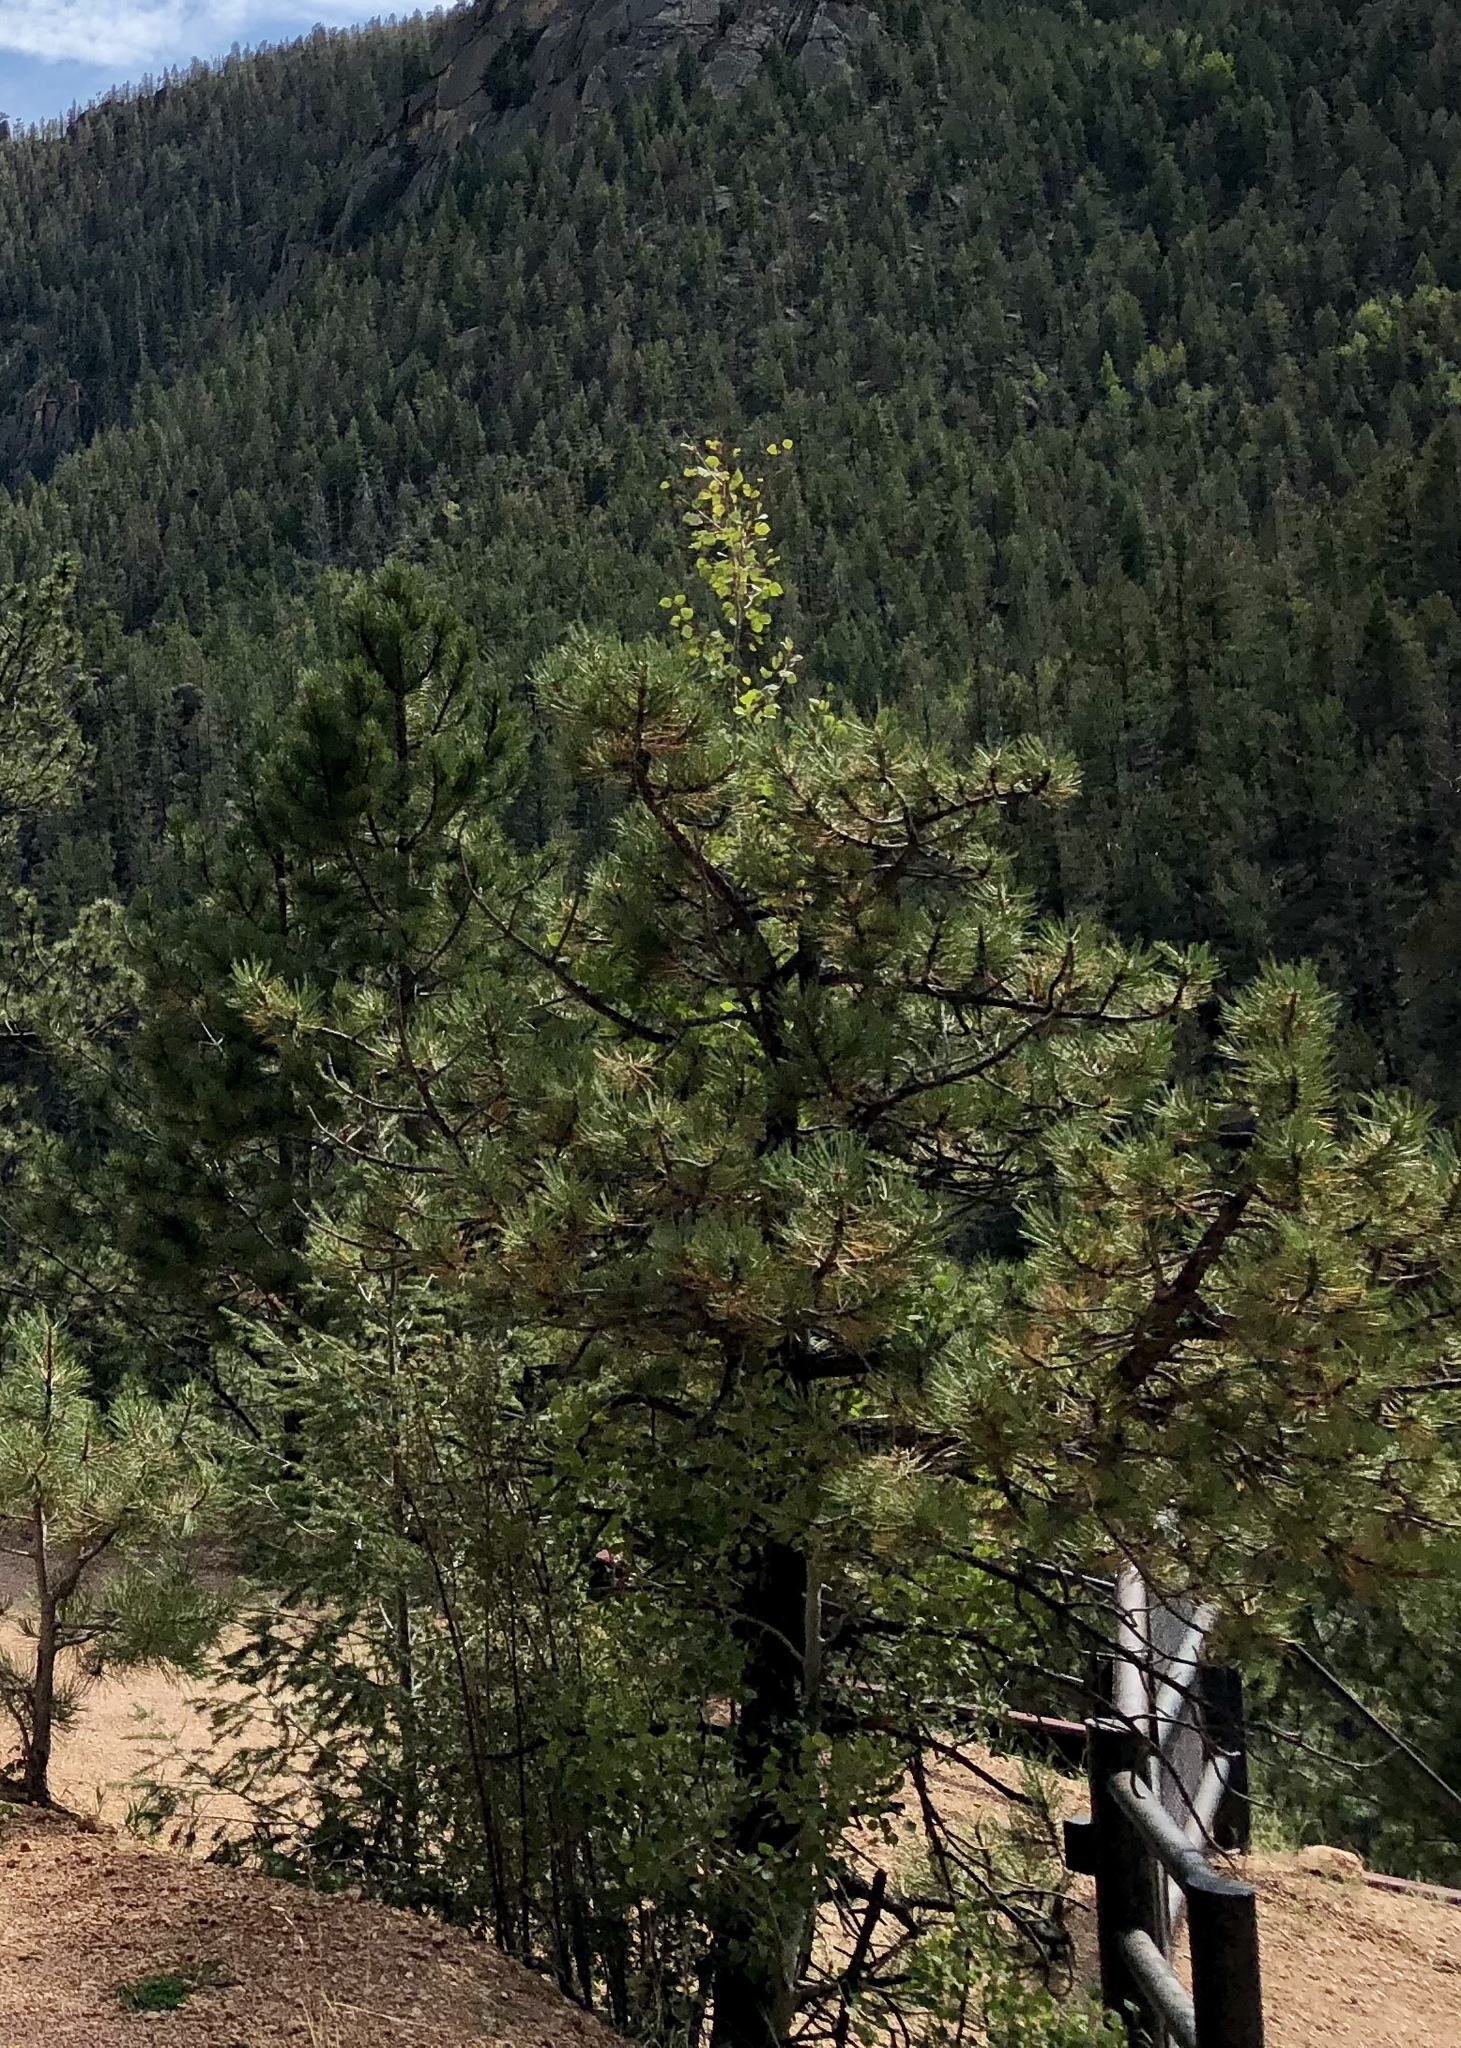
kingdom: Plantae
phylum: Tracheophyta
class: Pinopsida
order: Pinales
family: Pinaceae
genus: Pinus
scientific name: Pinus ponderosa
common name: Western yellow-pine
